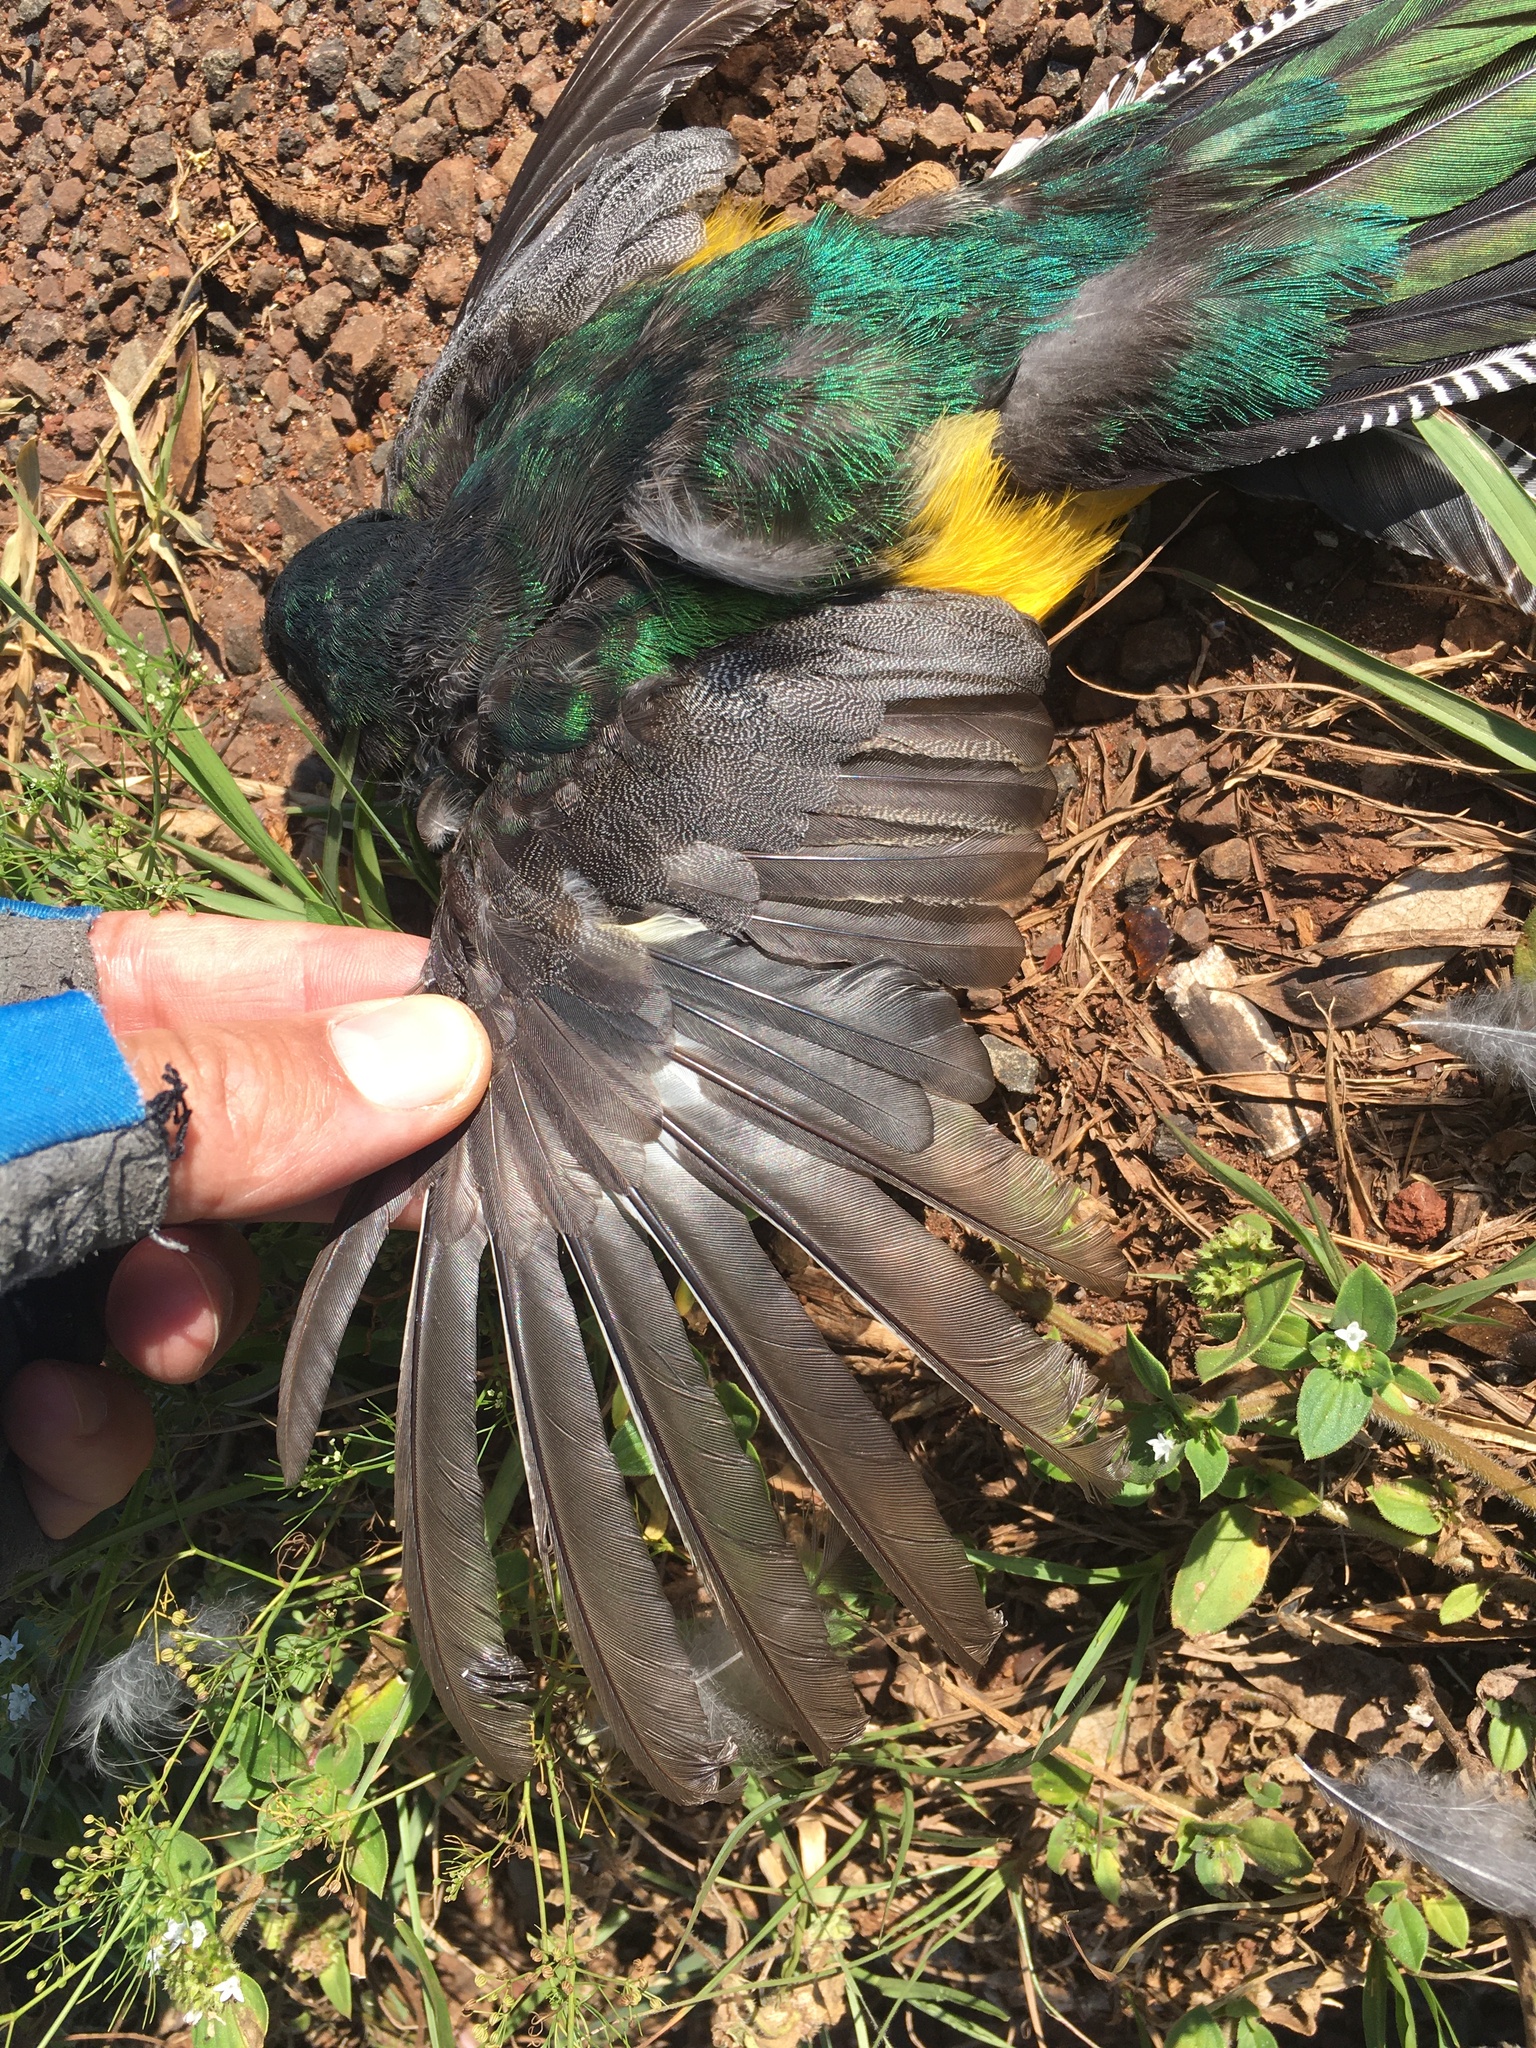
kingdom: Animalia
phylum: Chordata
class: Aves
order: Trogoniformes
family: Trogonidae
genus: Trogon
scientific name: Trogon rufus
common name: Black-throated trogon
